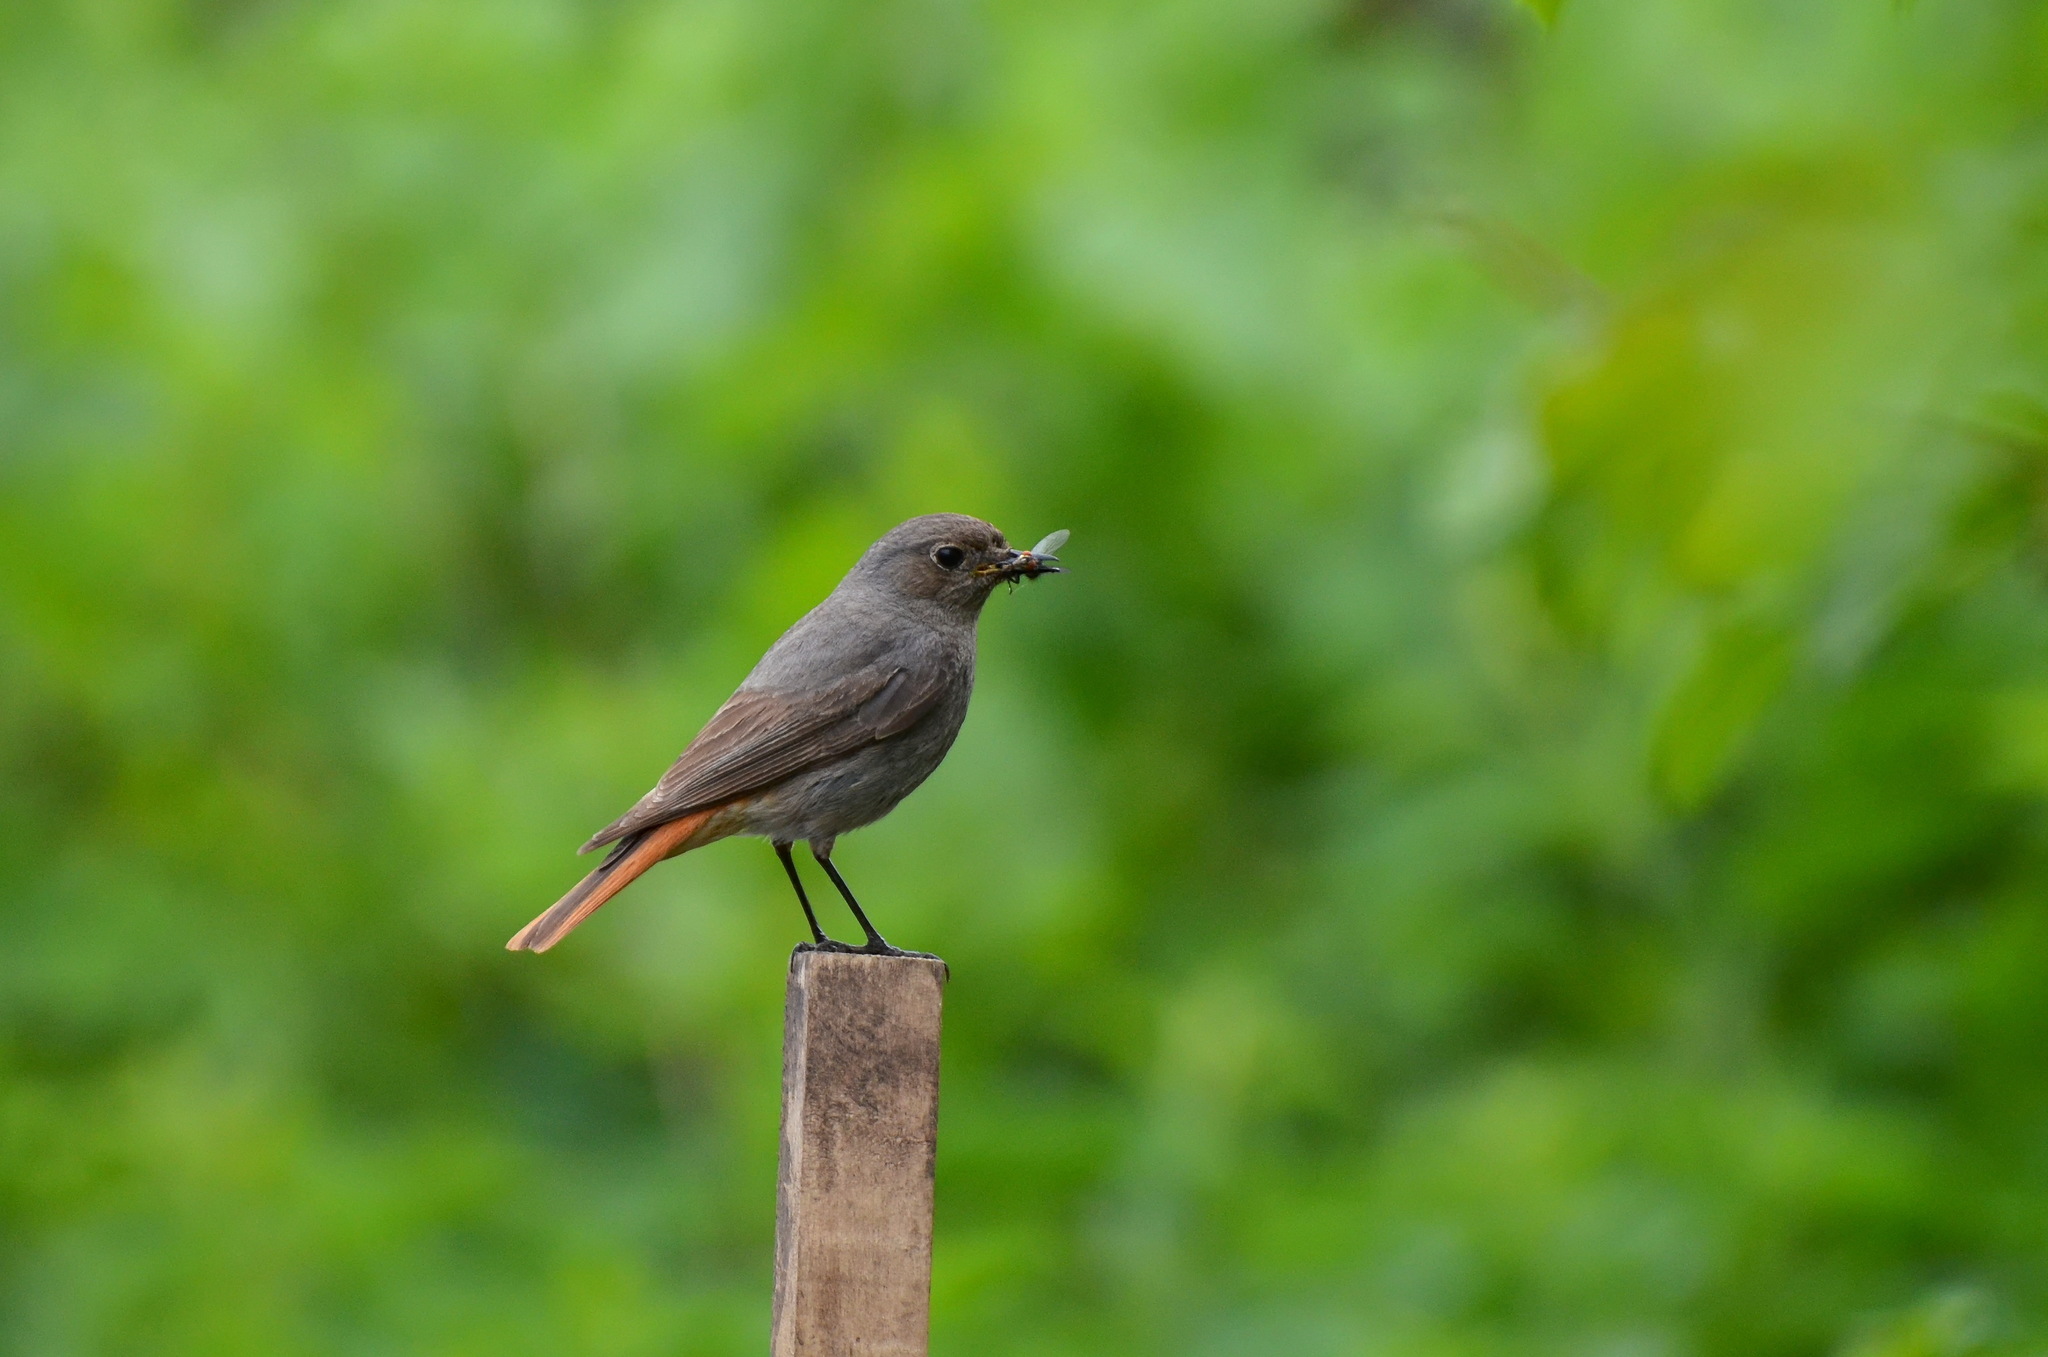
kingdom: Animalia
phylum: Chordata
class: Aves
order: Passeriformes
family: Muscicapidae
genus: Phoenicurus
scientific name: Phoenicurus ochruros
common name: Black redstart
